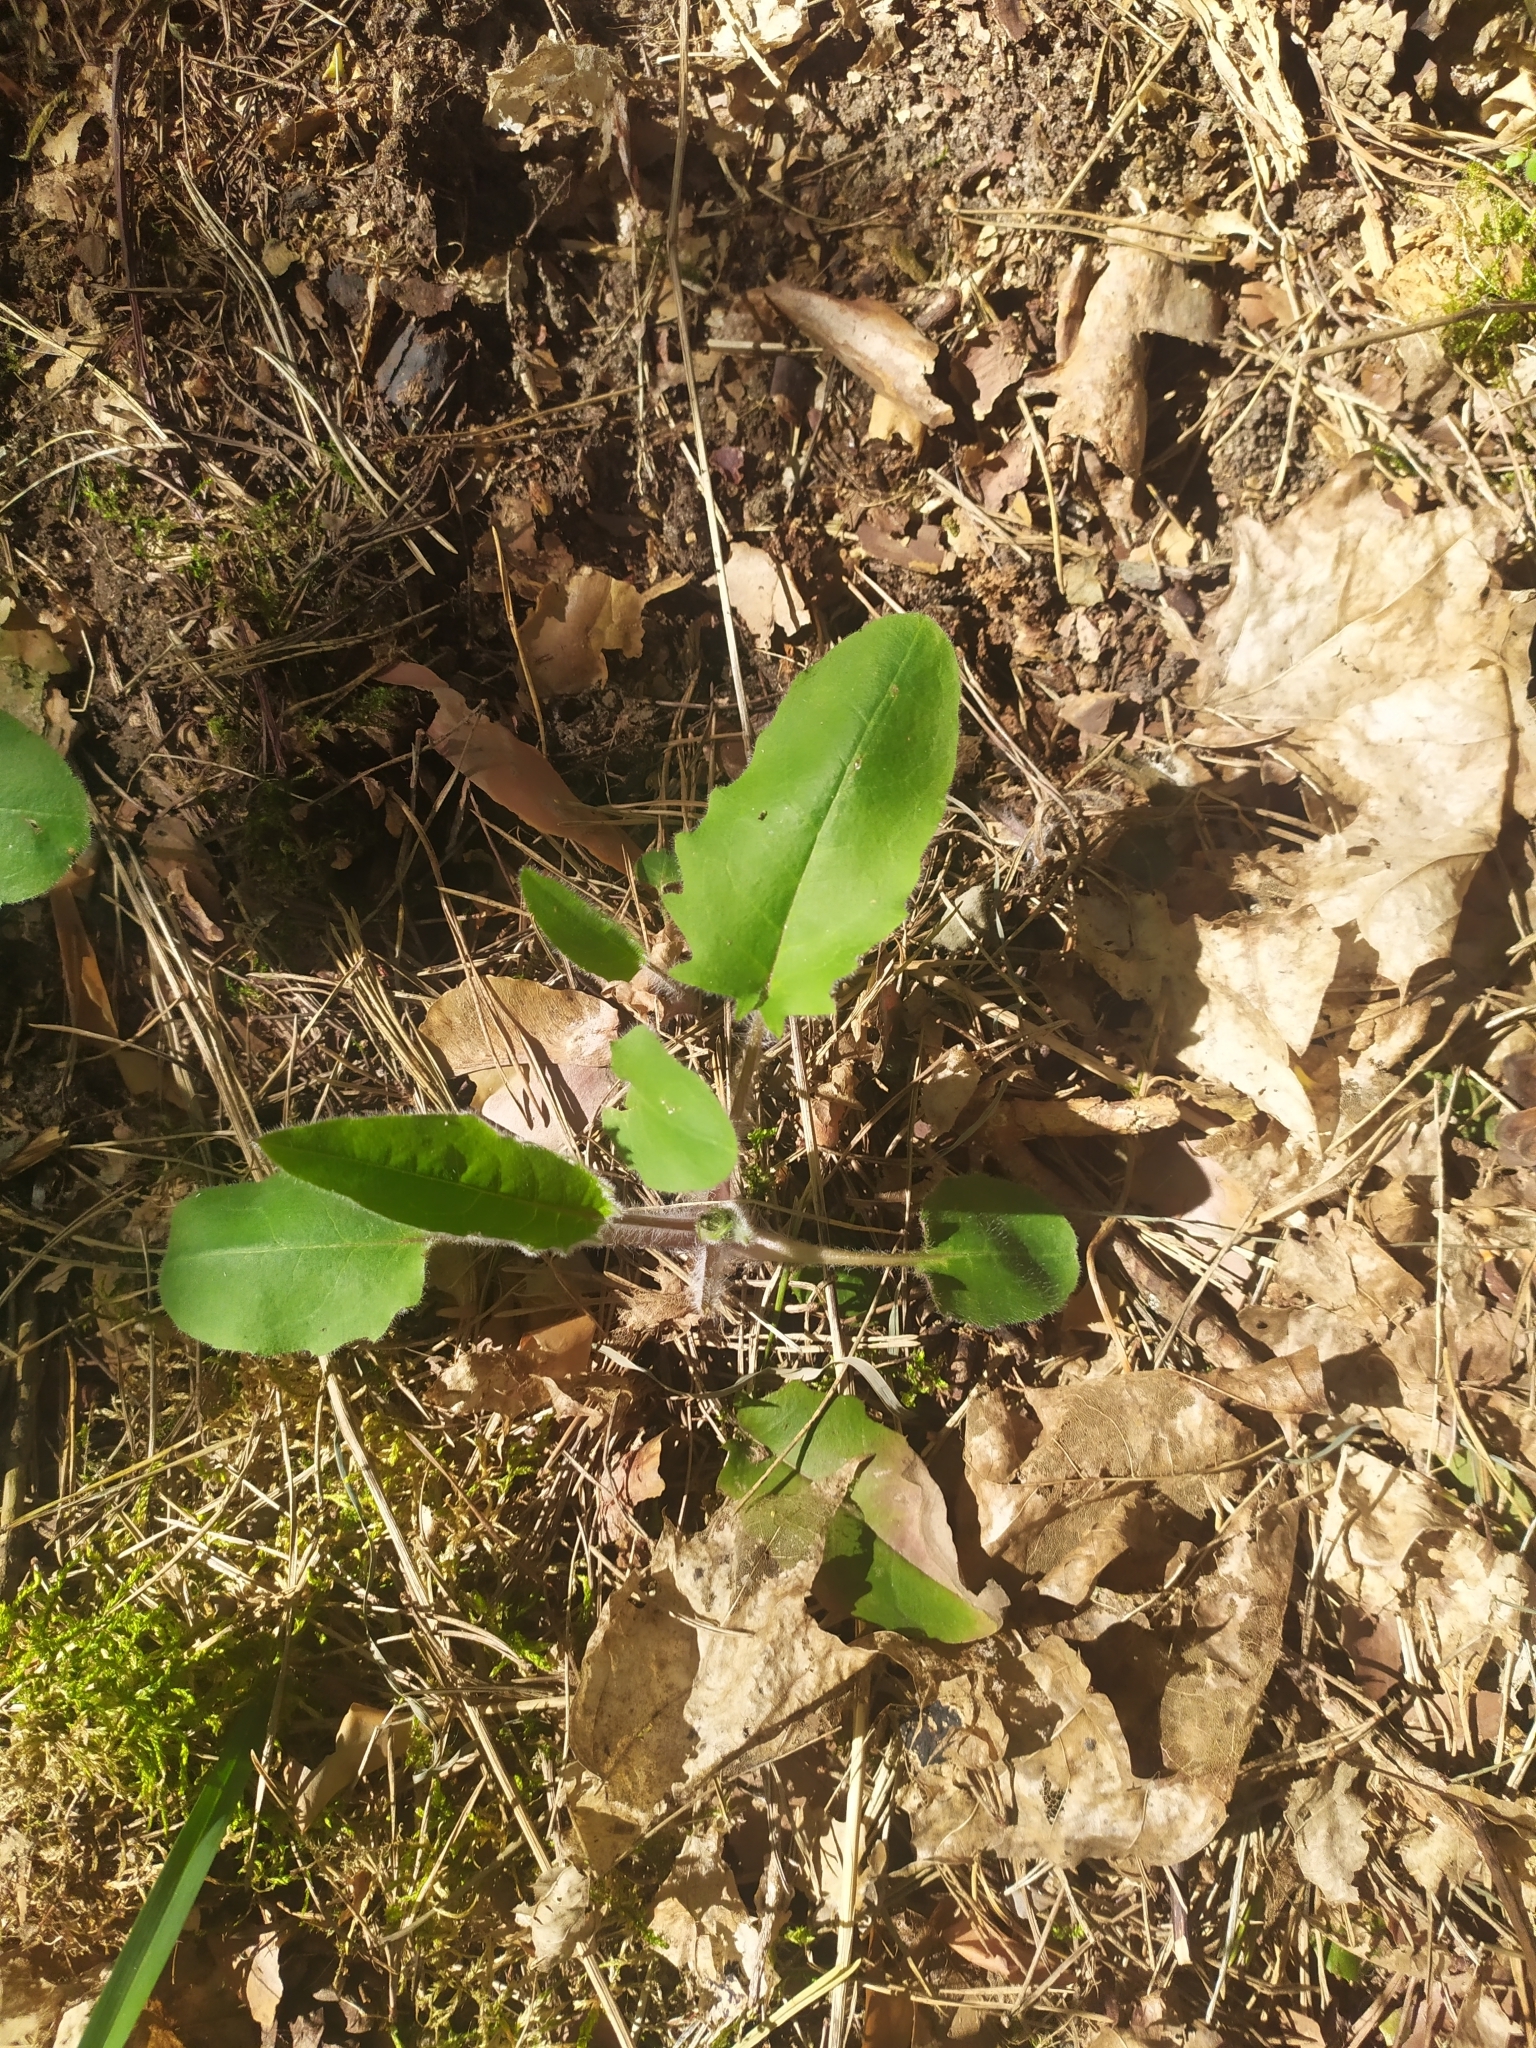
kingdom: Plantae
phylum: Tracheophyta
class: Magnoliopsida
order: Asterales
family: Asteraceae
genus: Hieracium
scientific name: Hieracium murorum
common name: Wall hawkweed
